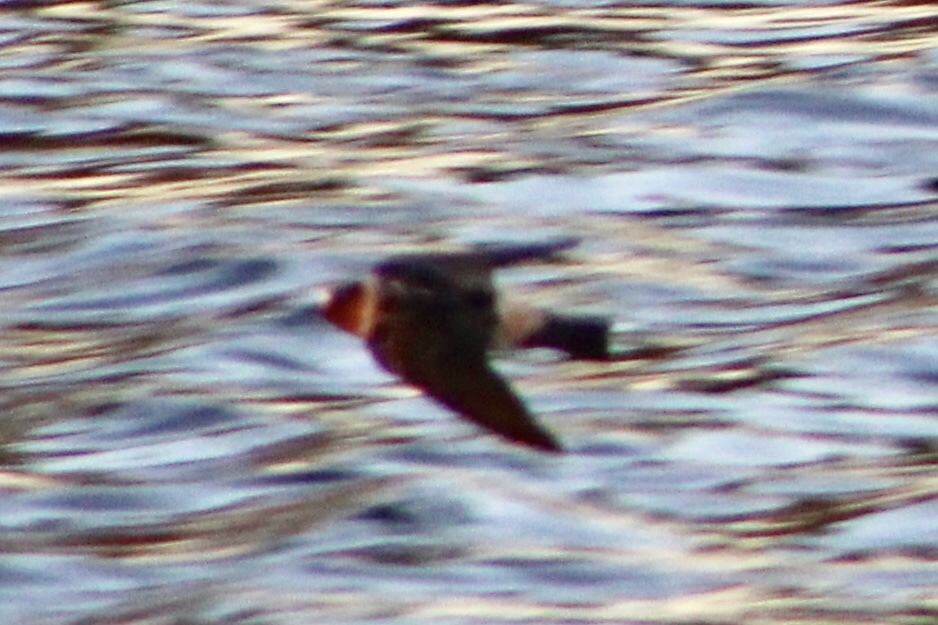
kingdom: Animalia
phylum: Chordata
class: Aves
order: Passeriformes
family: Hirundinidae
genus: Petrochelidon
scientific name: Petrochelidon pyrrhonota
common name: American cliff swallow
